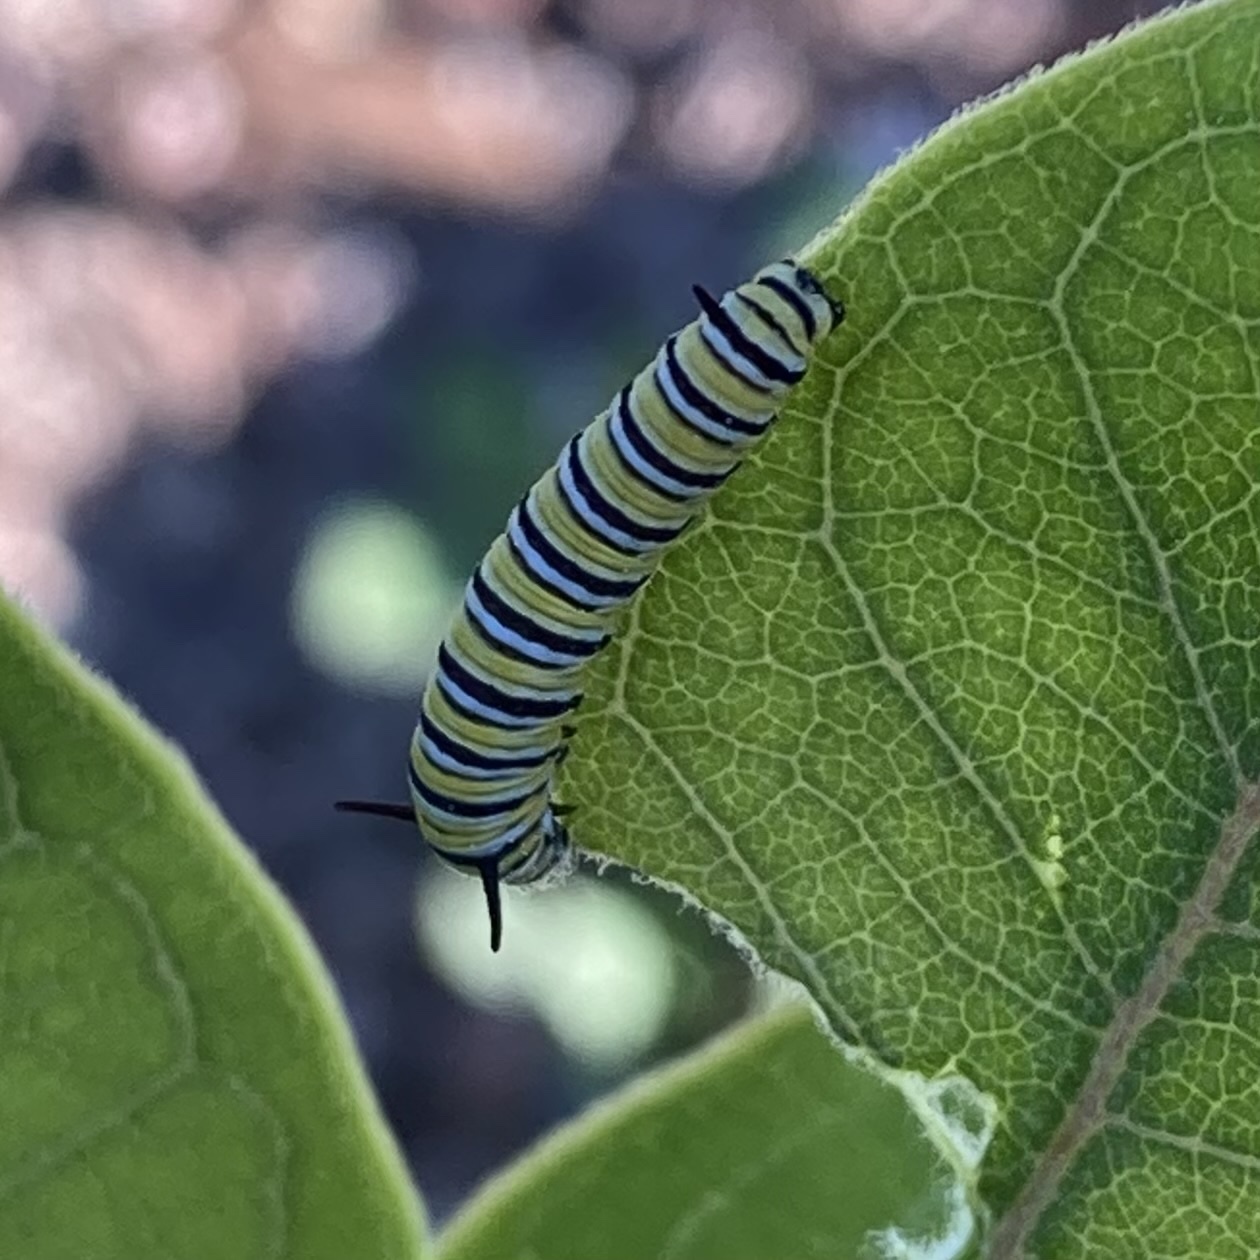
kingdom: Animalia
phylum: Arthropoda
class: Insecta
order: Lepidoptera
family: Nymphalidae
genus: Danaus
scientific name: Danaus plexippus
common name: Monarch
